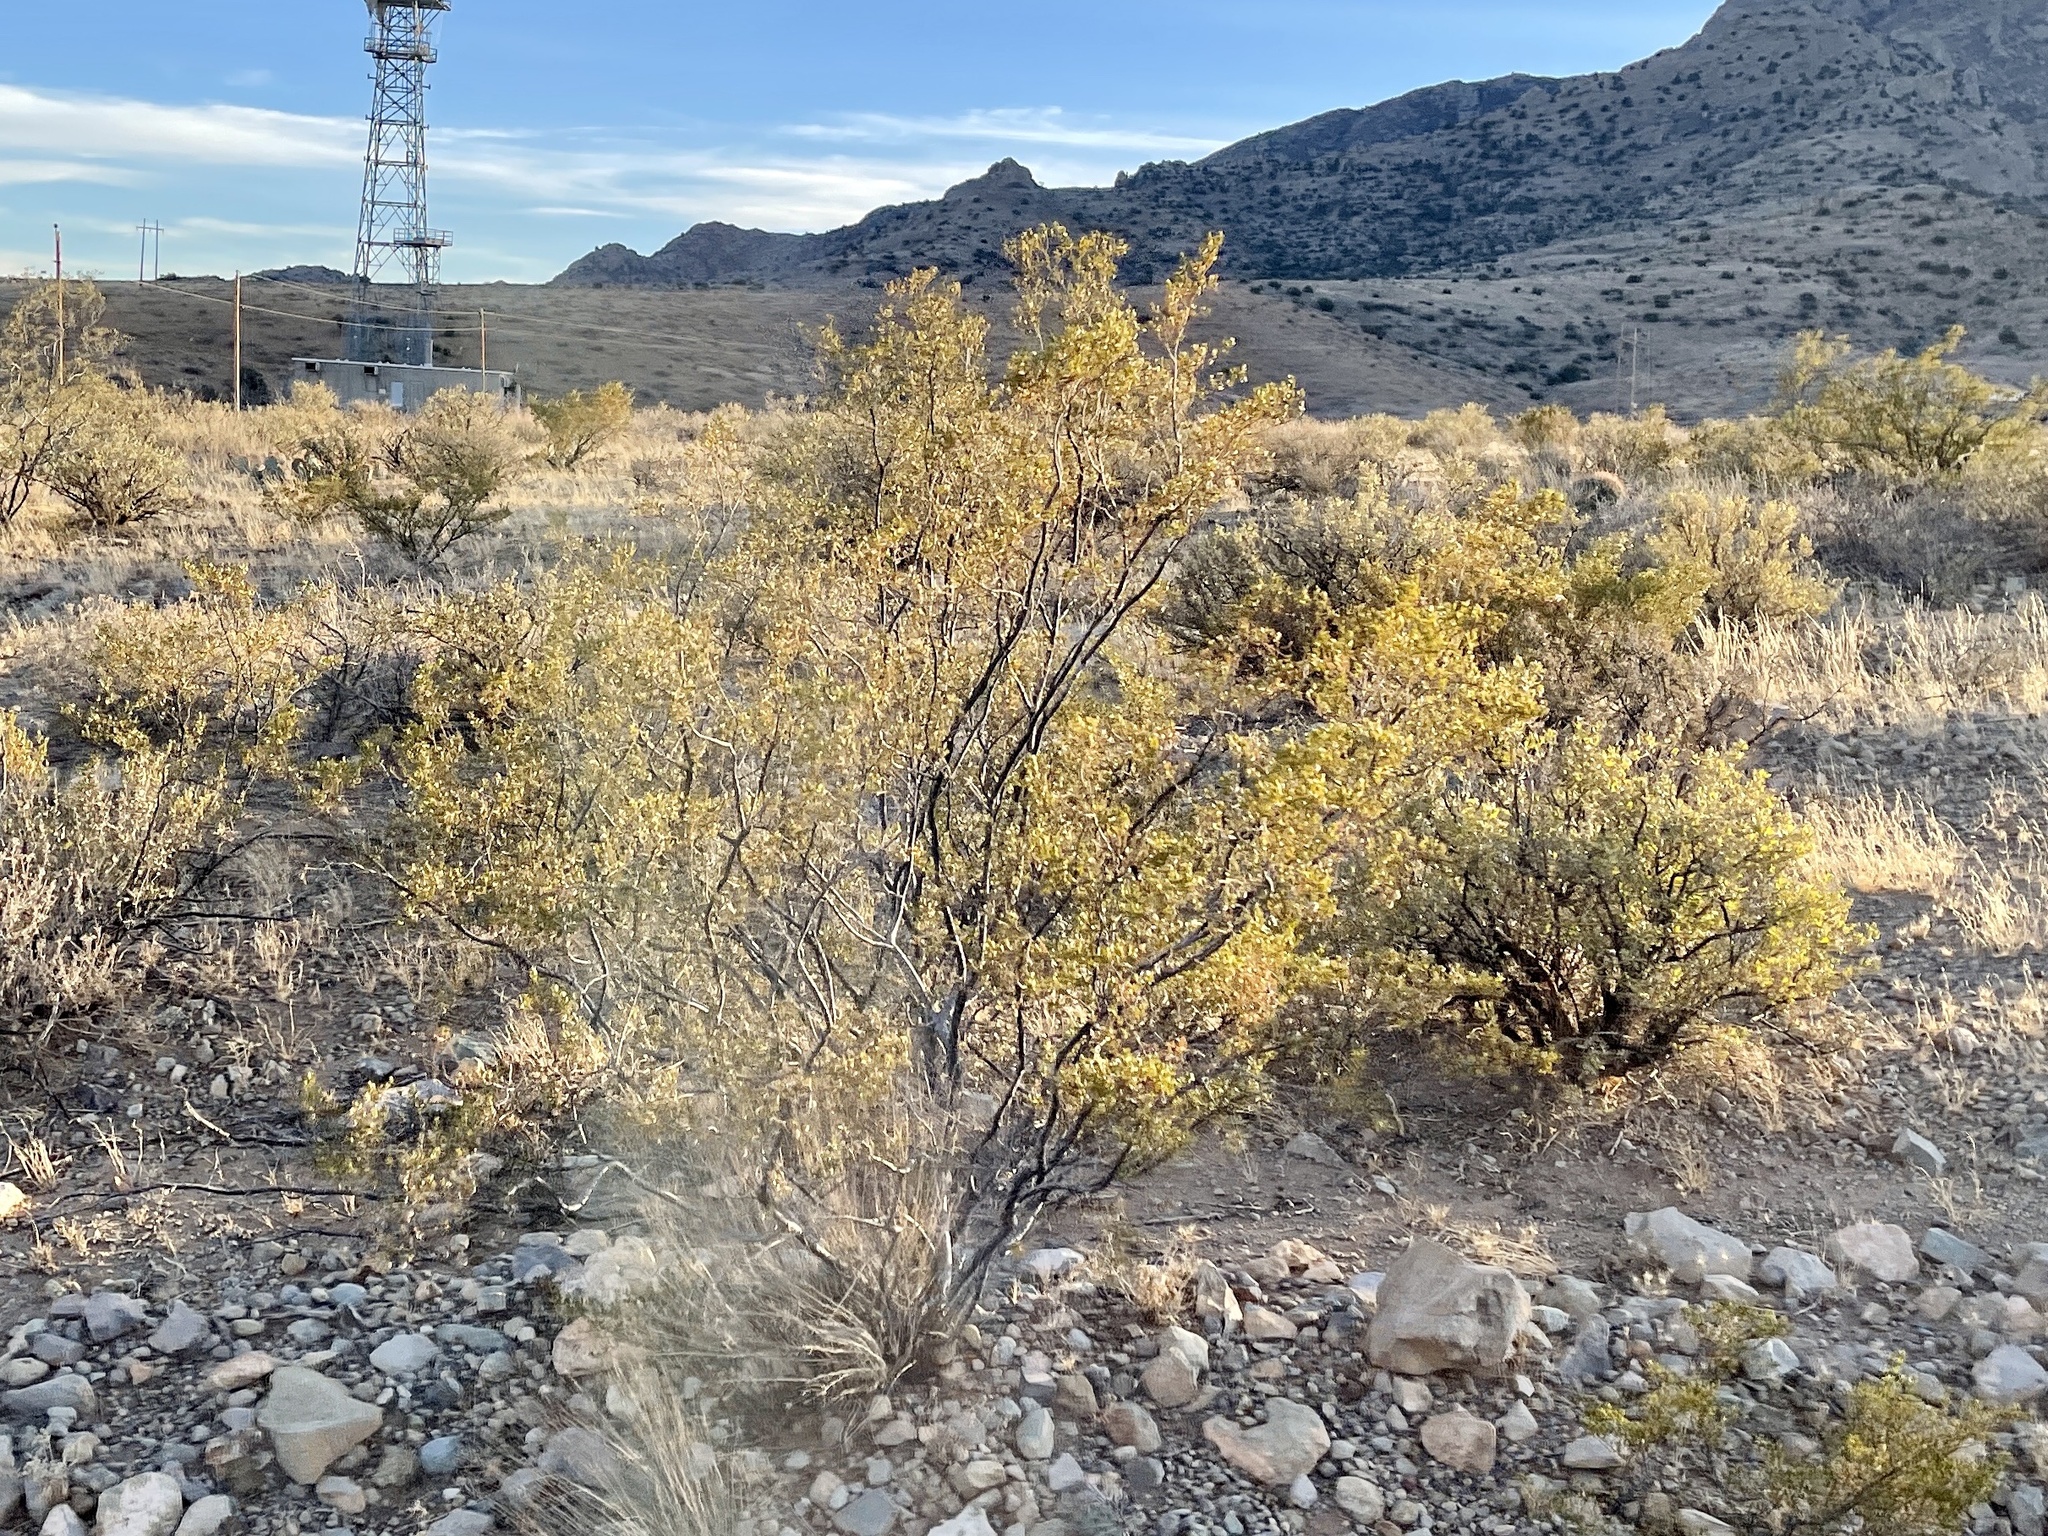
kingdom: Plantae
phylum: Tracheophyta
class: Magnoliopsida
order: Zygophyllales
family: Zygophyllaceae
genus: Larrea
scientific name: Larrea tridentata
